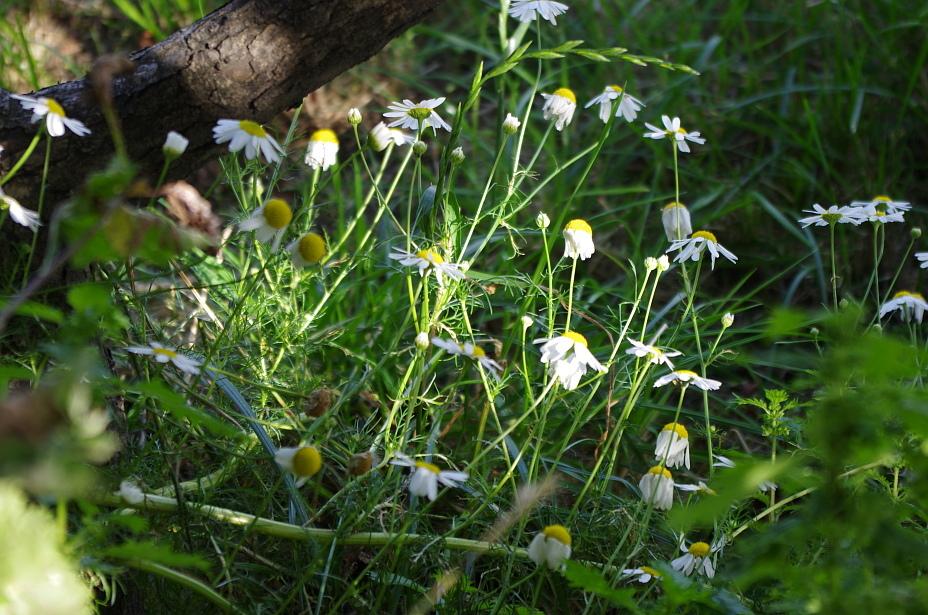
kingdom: Plantae
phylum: Tracheophyta
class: Magnoliopsida
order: Asterales
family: Asteraceae
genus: Tripleurospermum
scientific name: Tripleurospermum inodorum
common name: Scentless mayweed
